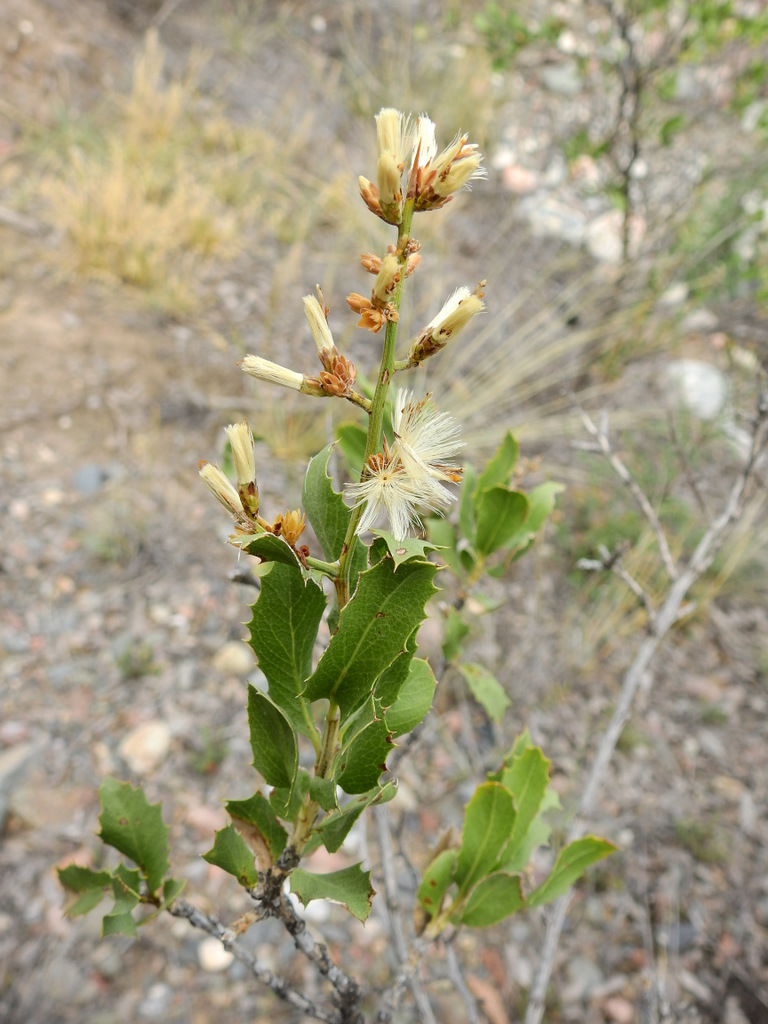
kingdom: Plantae
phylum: Tracheophyta
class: Magnoliopsida
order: Asterales
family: Asteraceae
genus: Proustia
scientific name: Proustia cuneifolia
